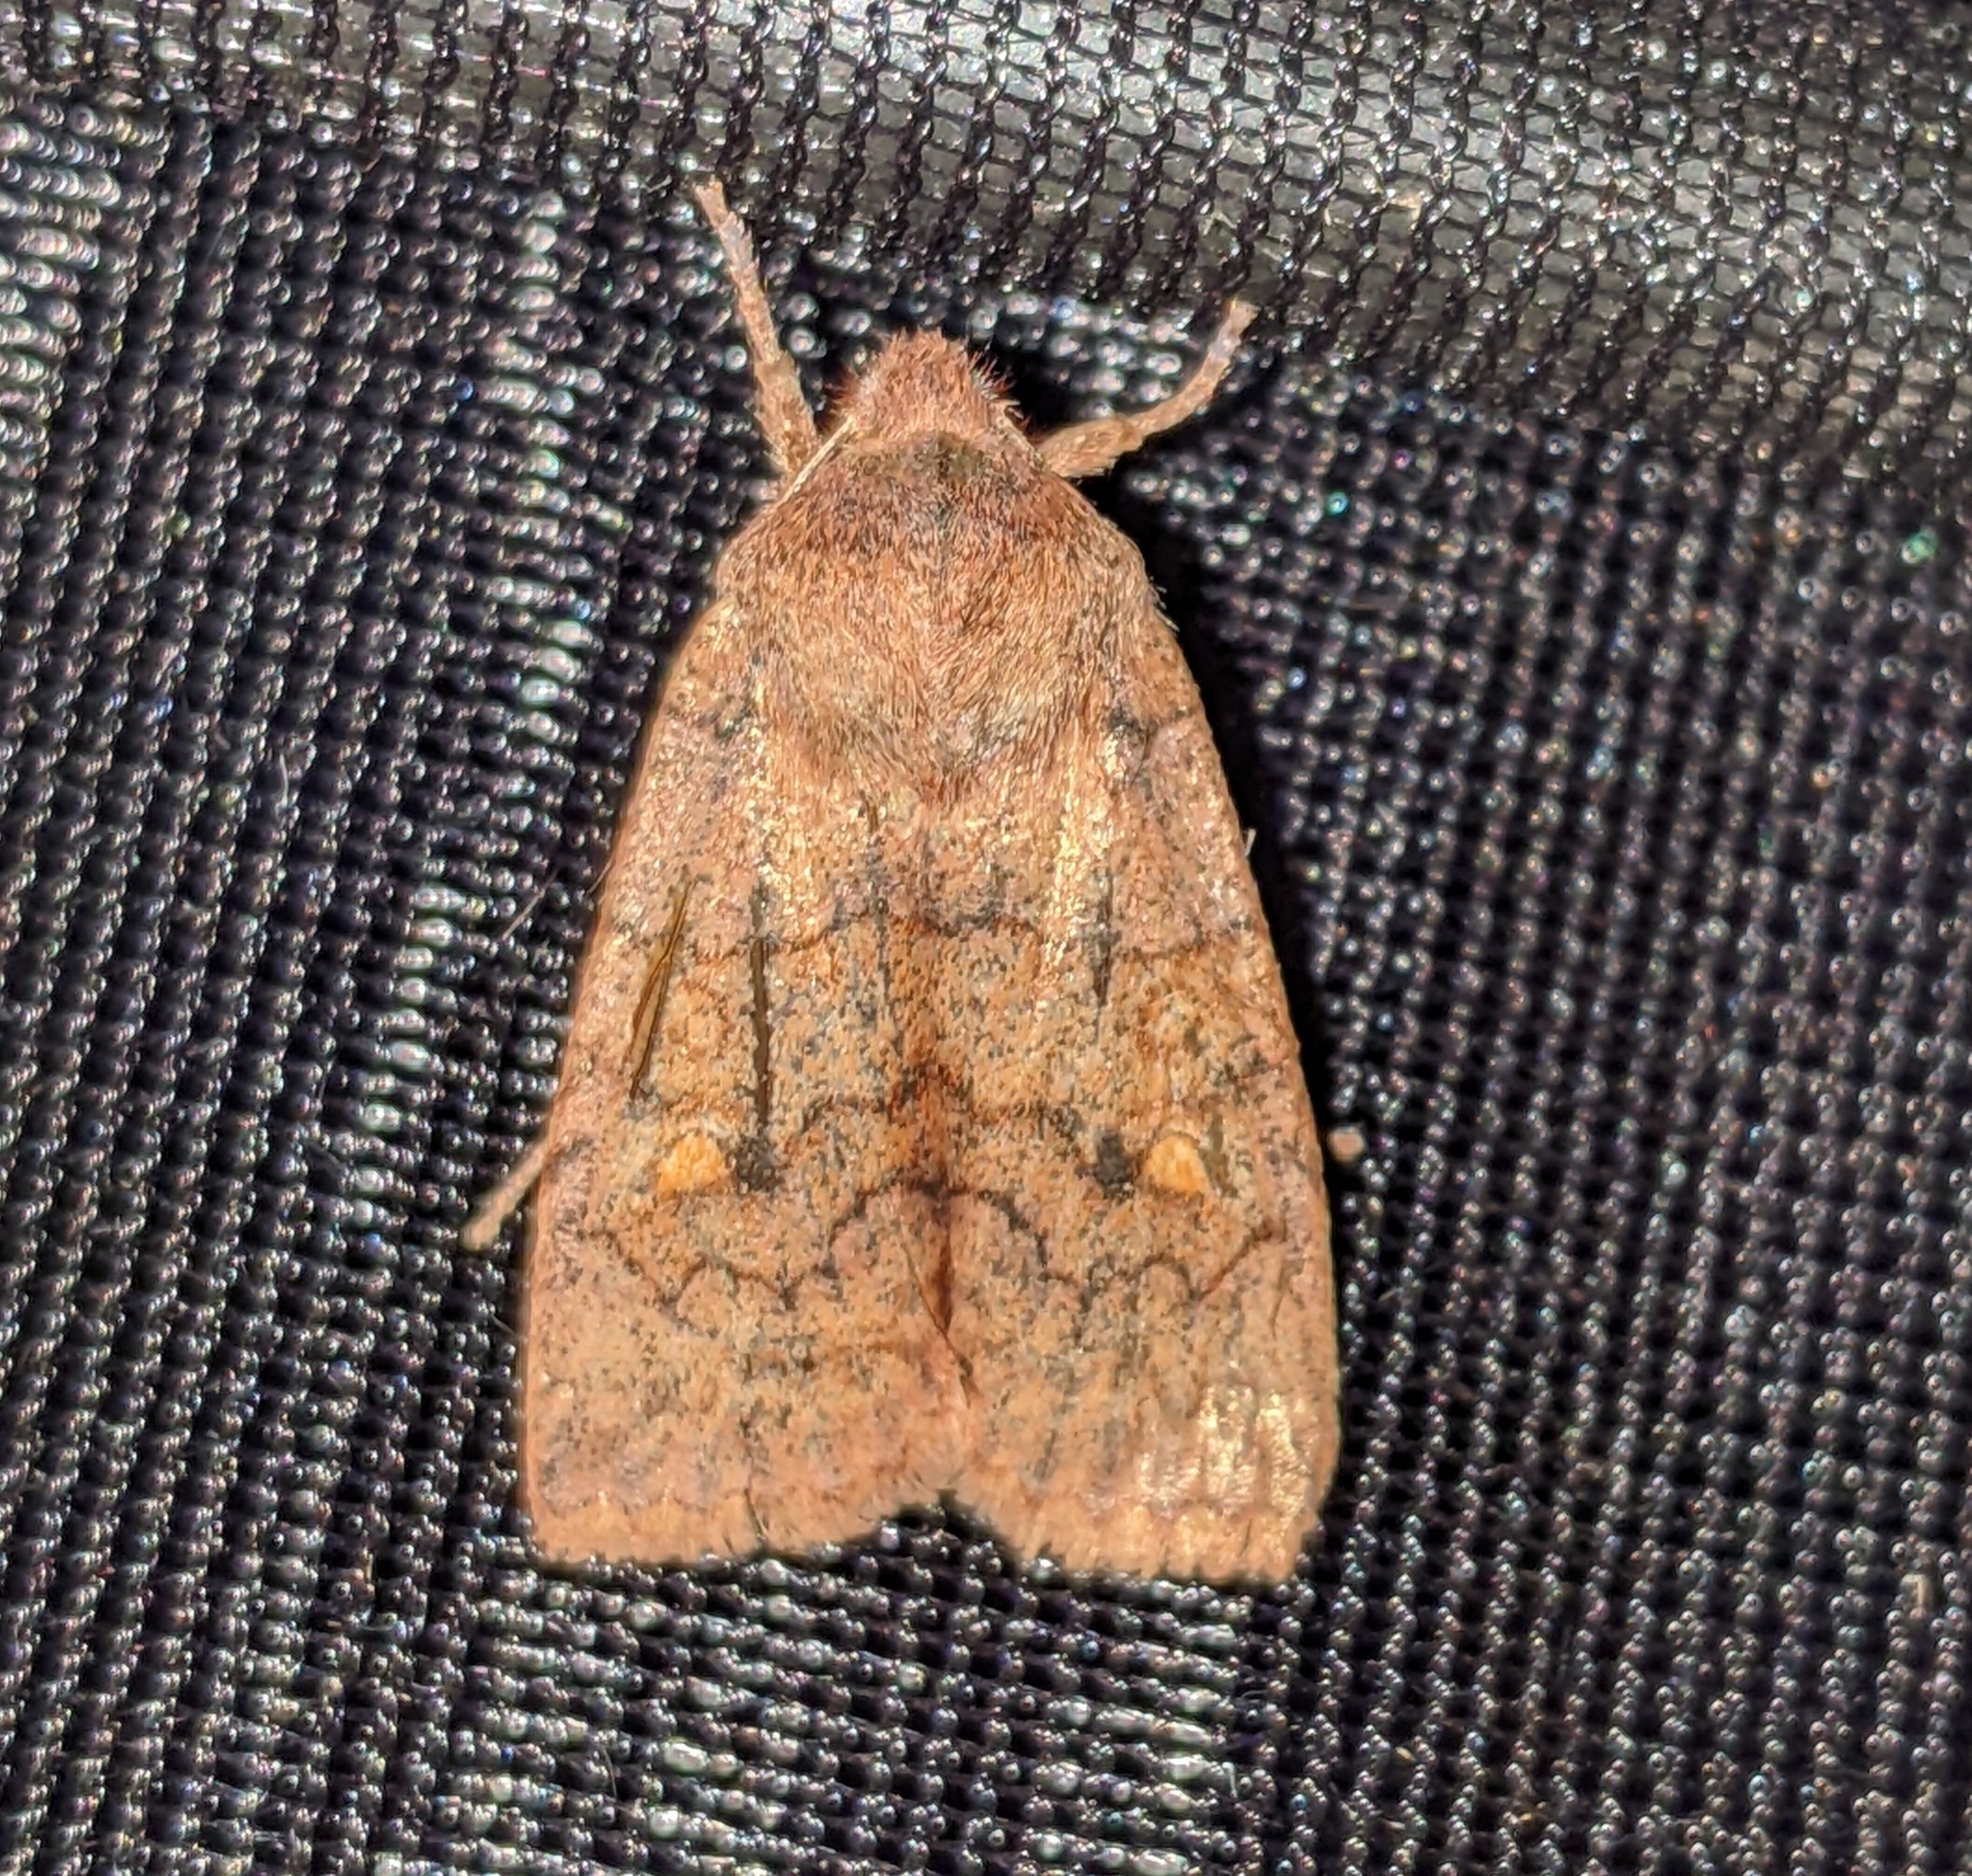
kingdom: Animalia
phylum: Arthropoda
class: Insecta
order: Lepidoptera
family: Noctuidae
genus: Eupsilia
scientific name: Eupsilia tristigmata
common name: Three-spotted sallow
